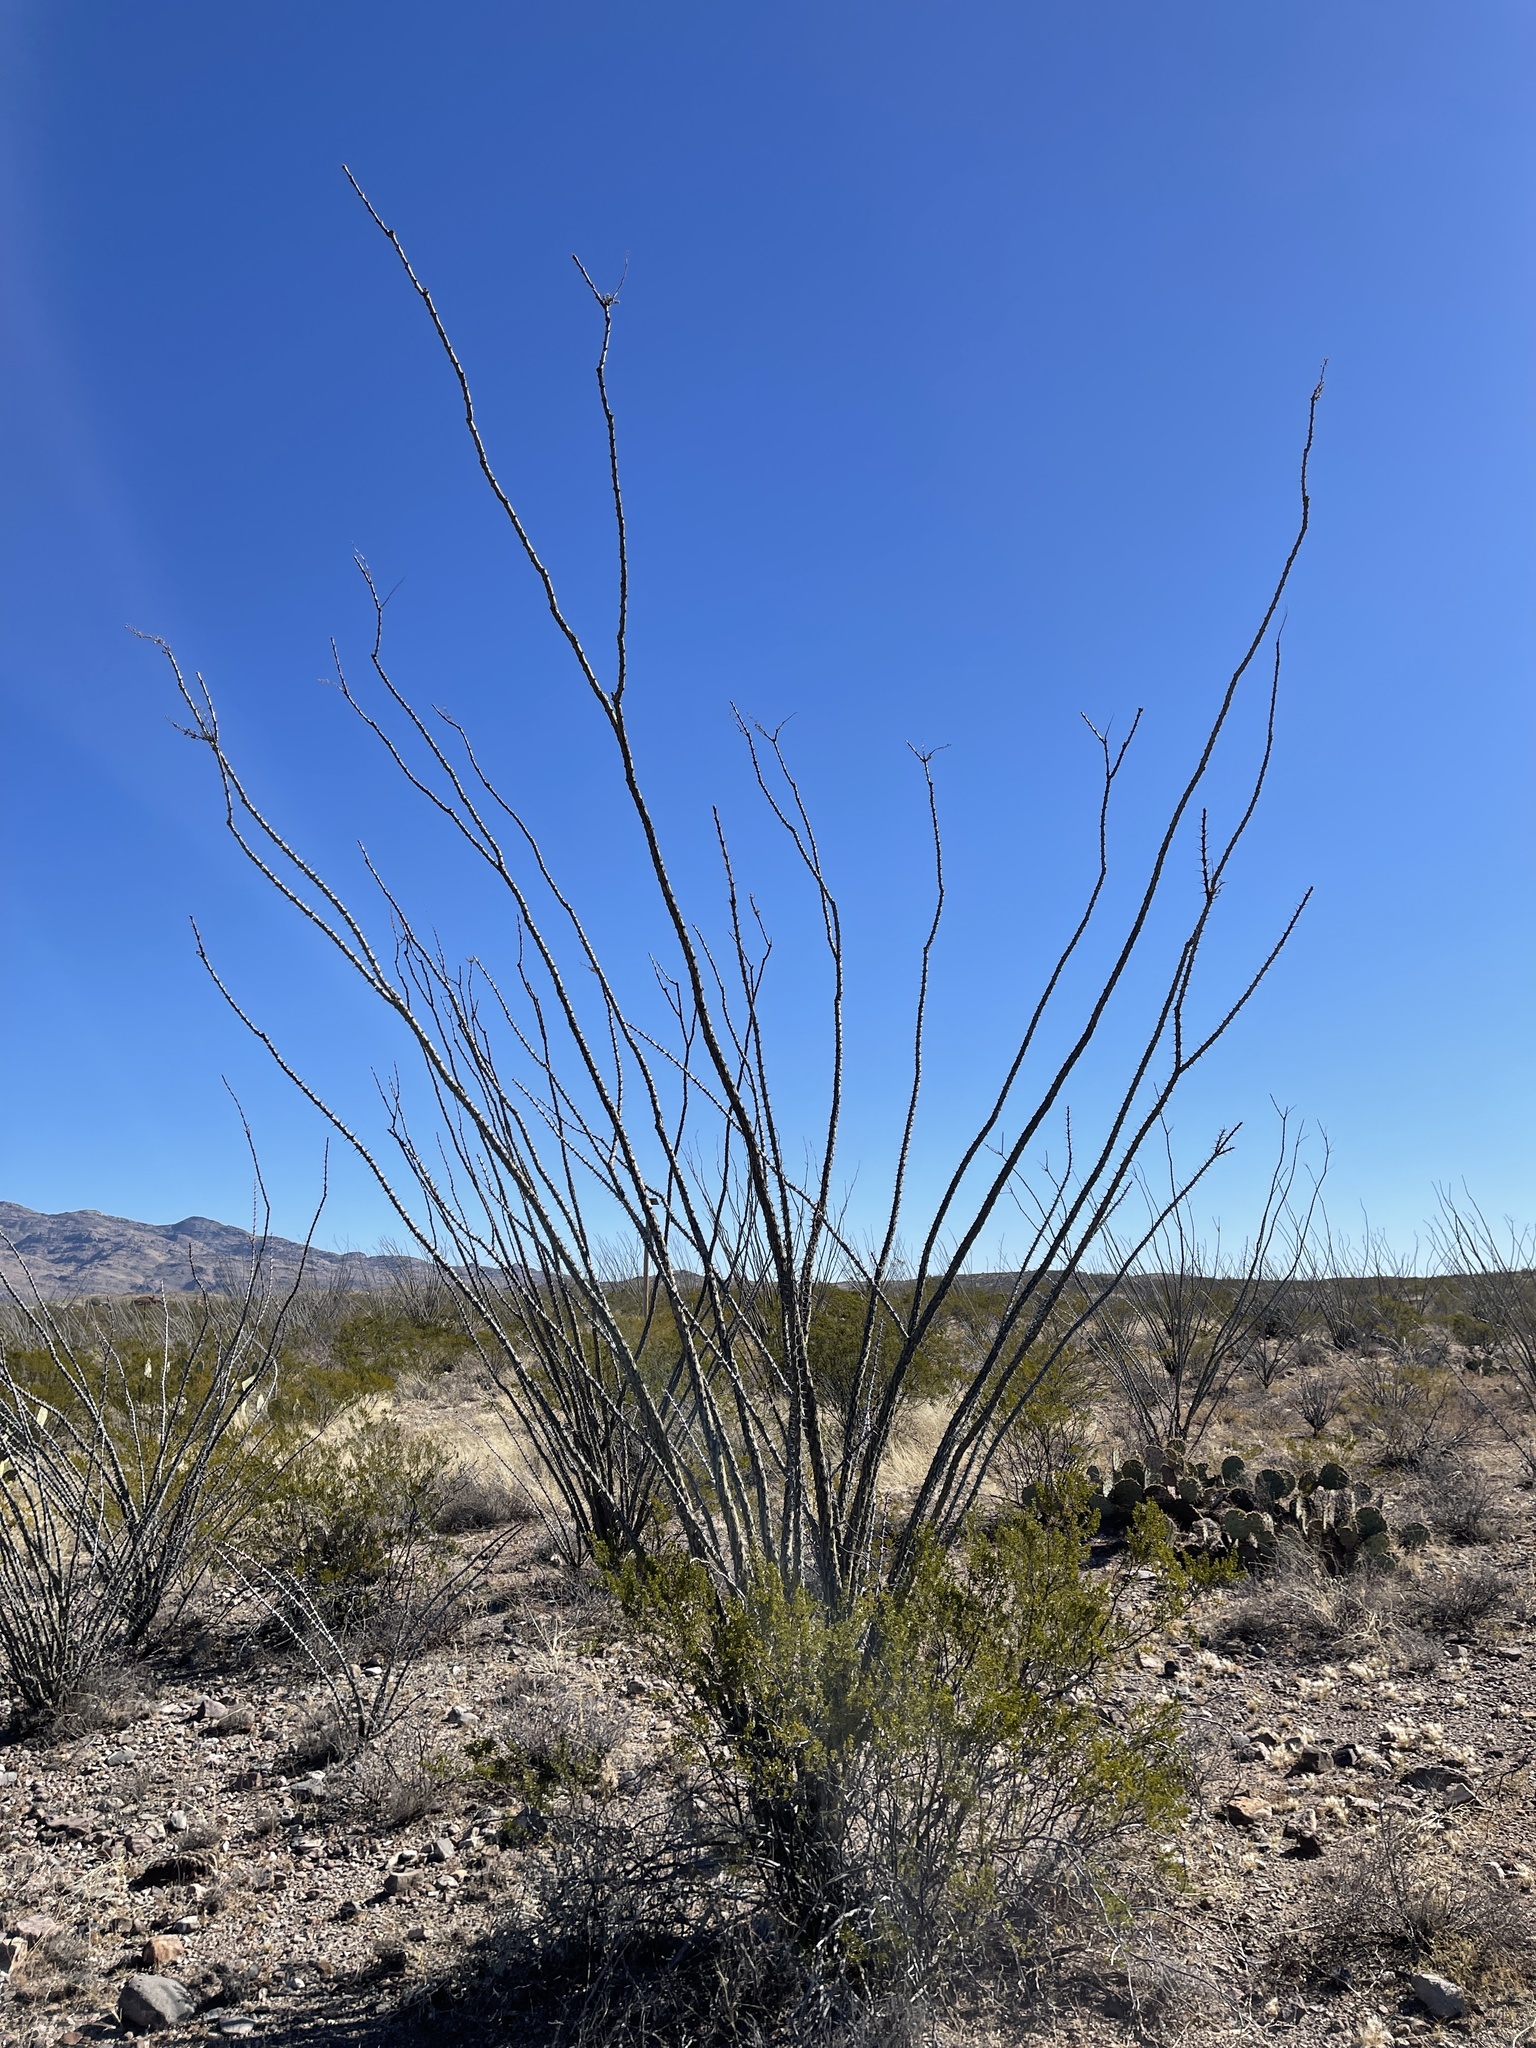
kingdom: Plantae
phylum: Tracheophyta
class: Magnoliopsida
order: Ericales
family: Fouquieriaceae
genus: Fouquieria
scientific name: Fouquieria splendens
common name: Vine-cactus
